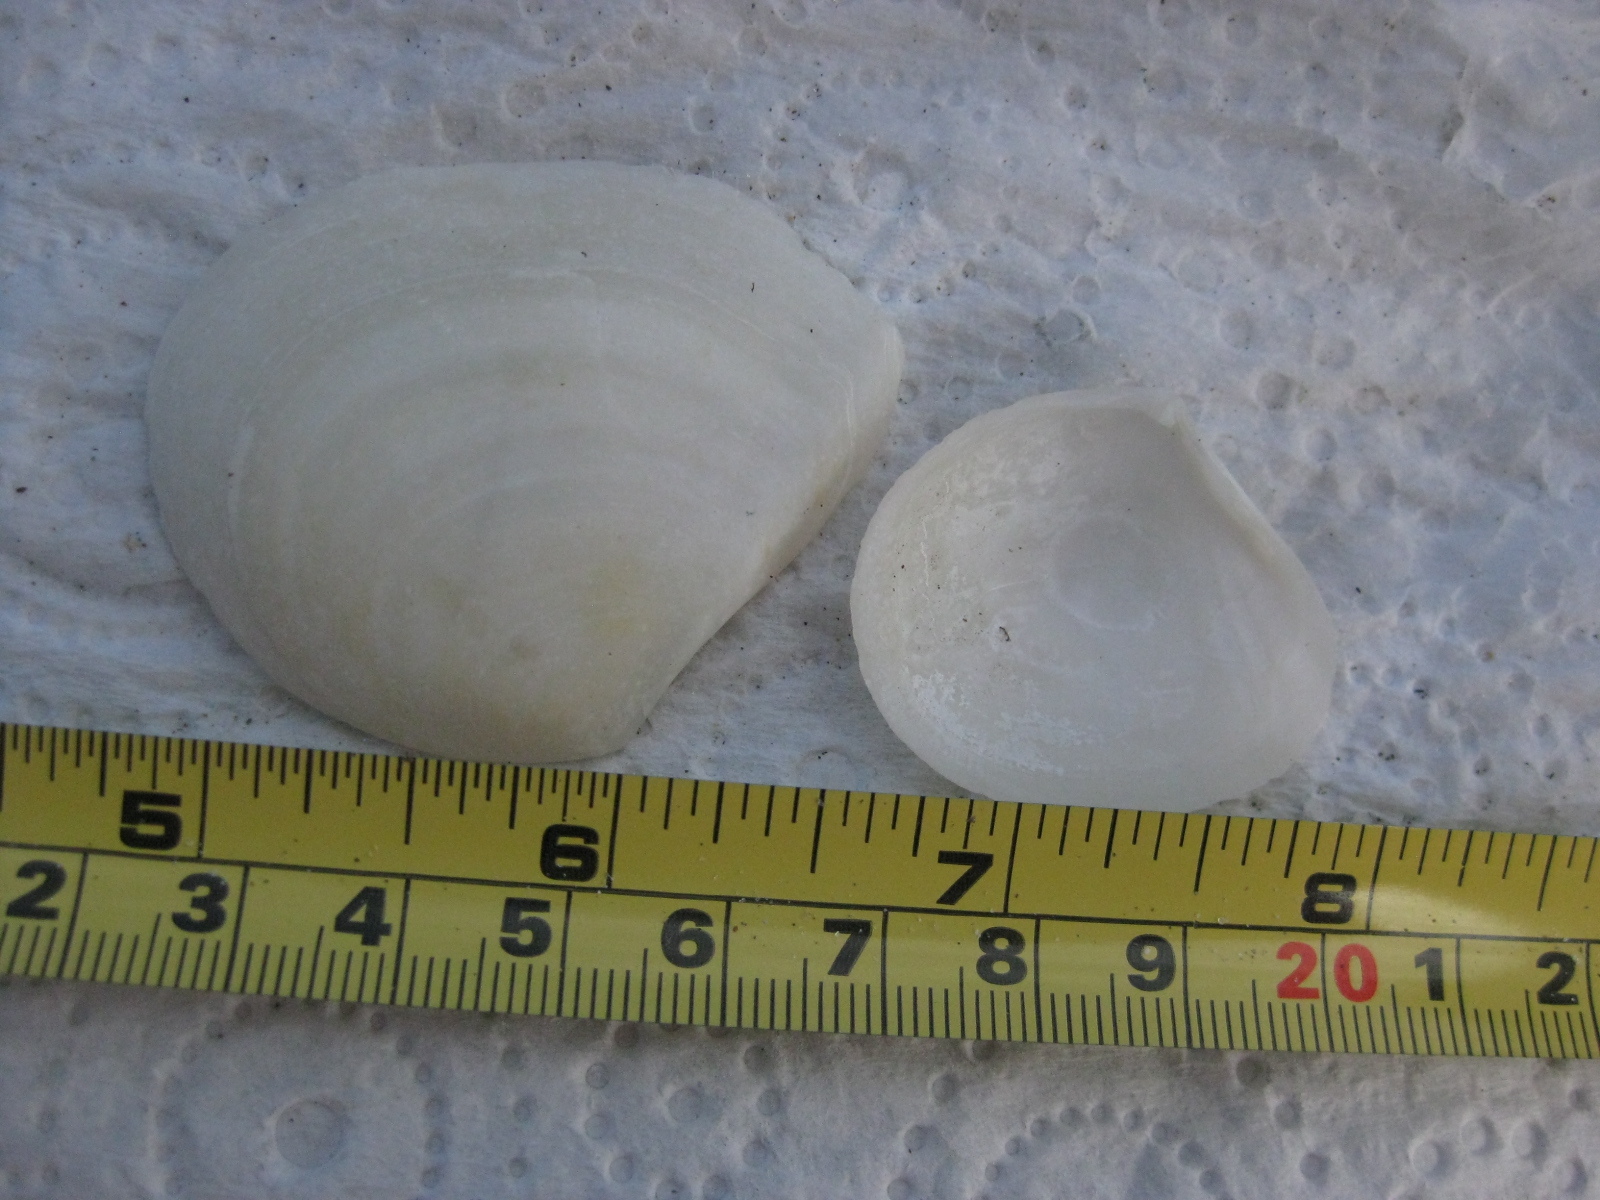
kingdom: Animalia
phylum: Mollusca
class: Bivalvia
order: Cardiida
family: Tellinidae
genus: Macomona
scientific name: Macomona liliana
